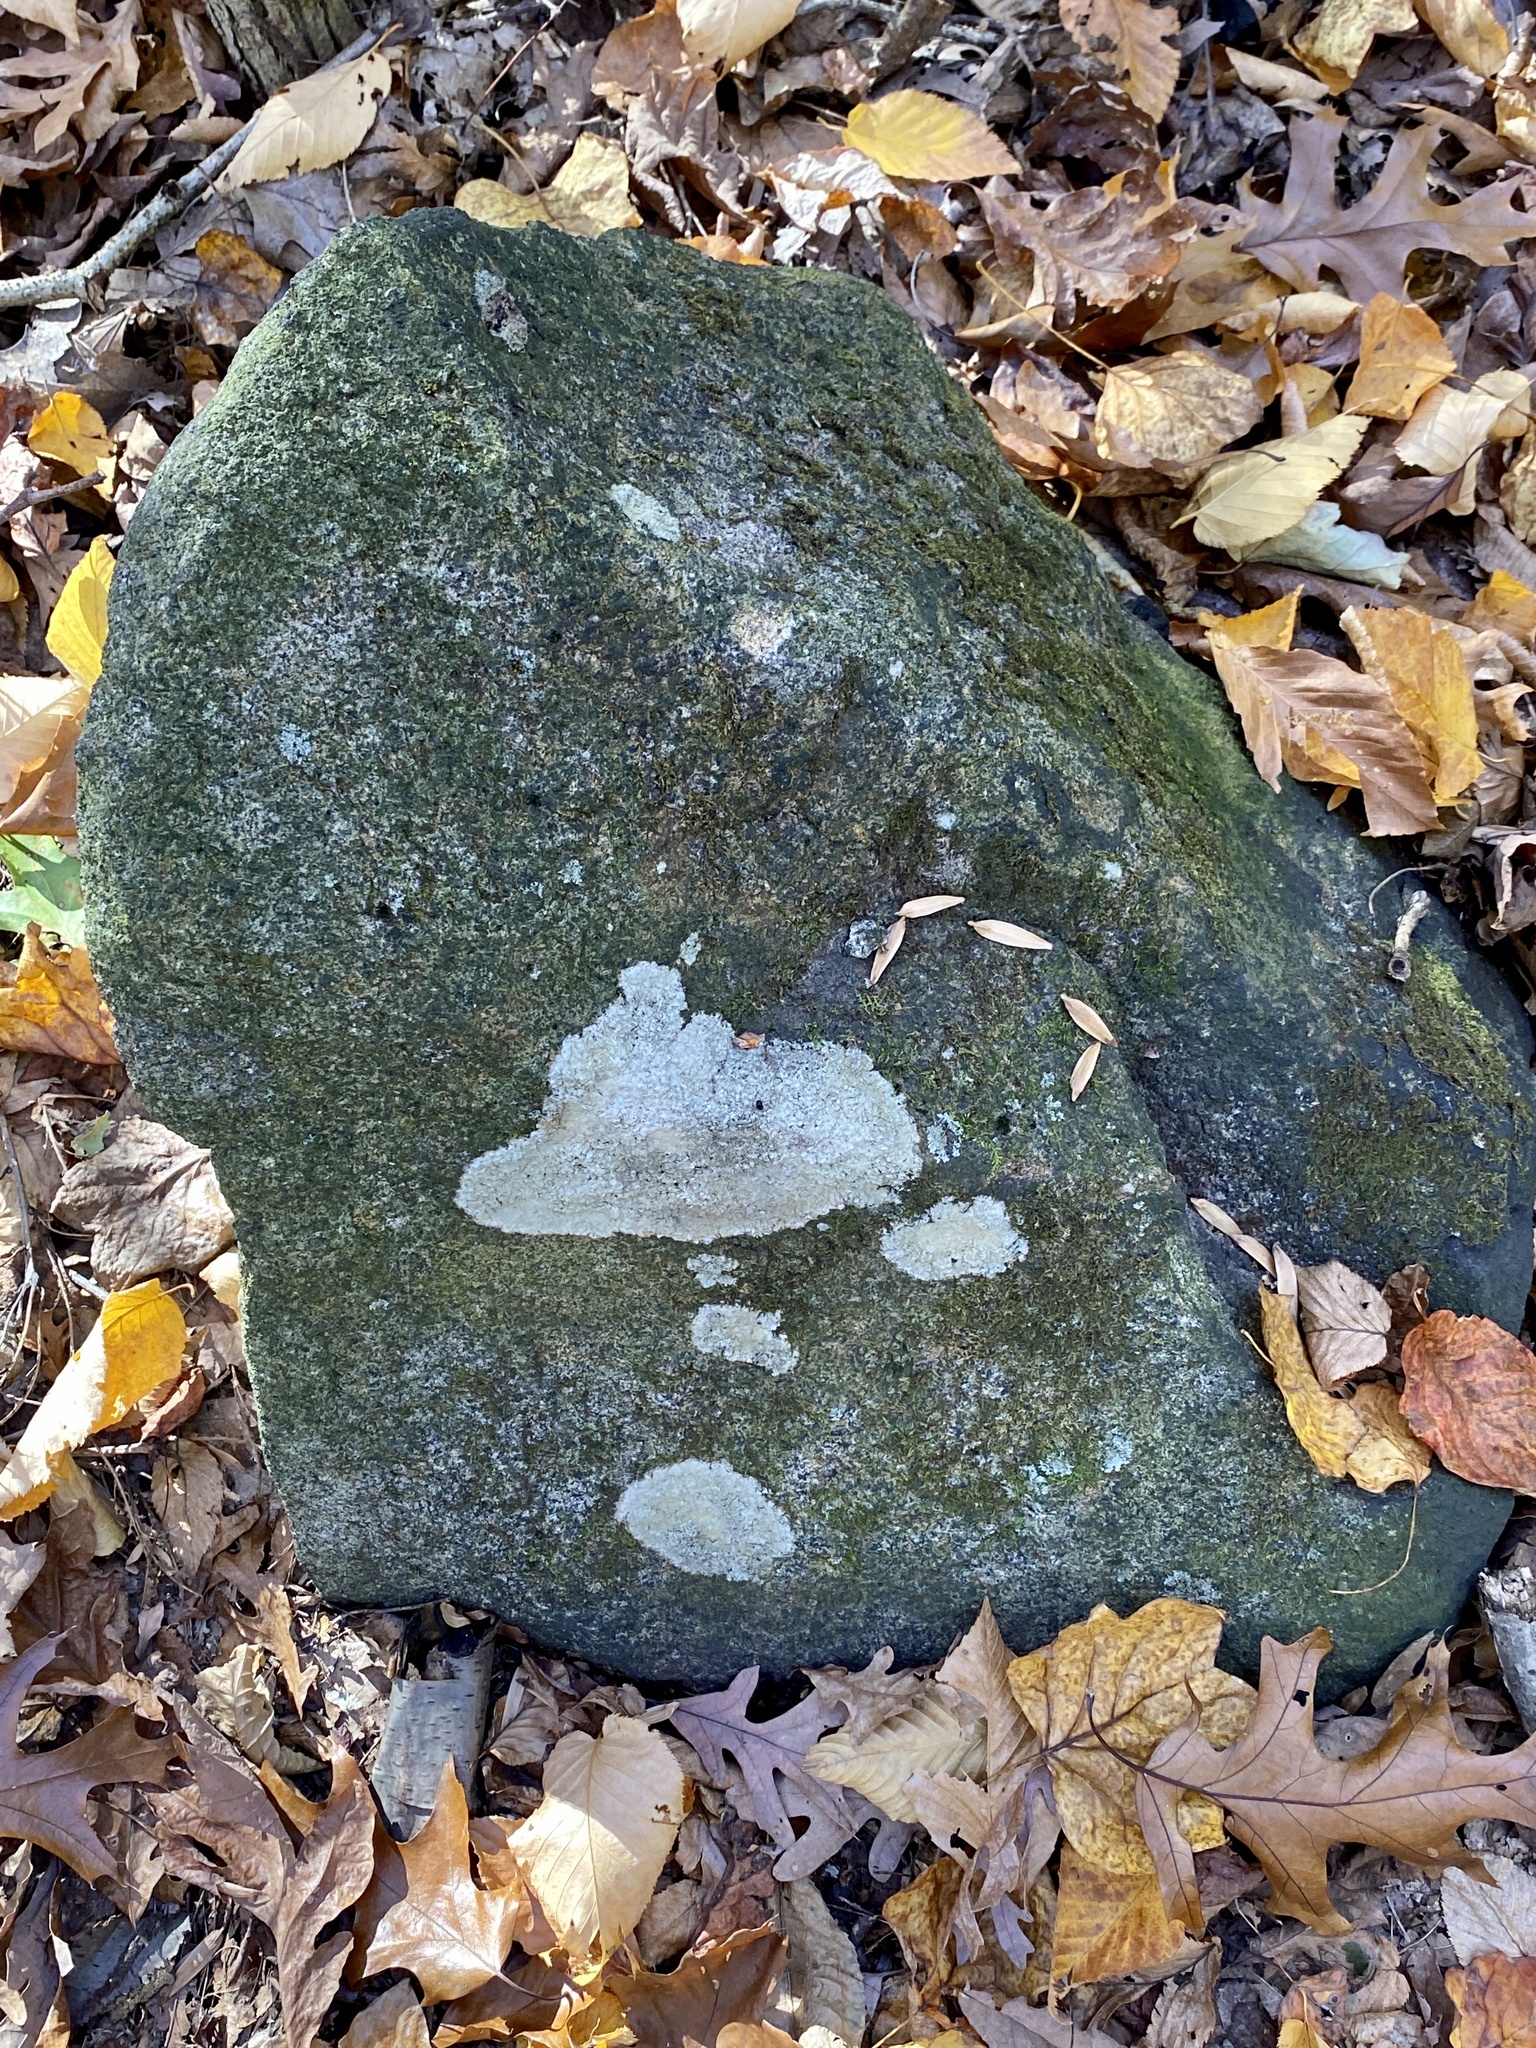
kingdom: Fungi
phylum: Ascomycota
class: Lecanoromycetes
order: Lecideales
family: Lecideaceae
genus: Porpidia
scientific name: Porpidia albocaerulescens
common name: Smokey-eyed boulder lichen
